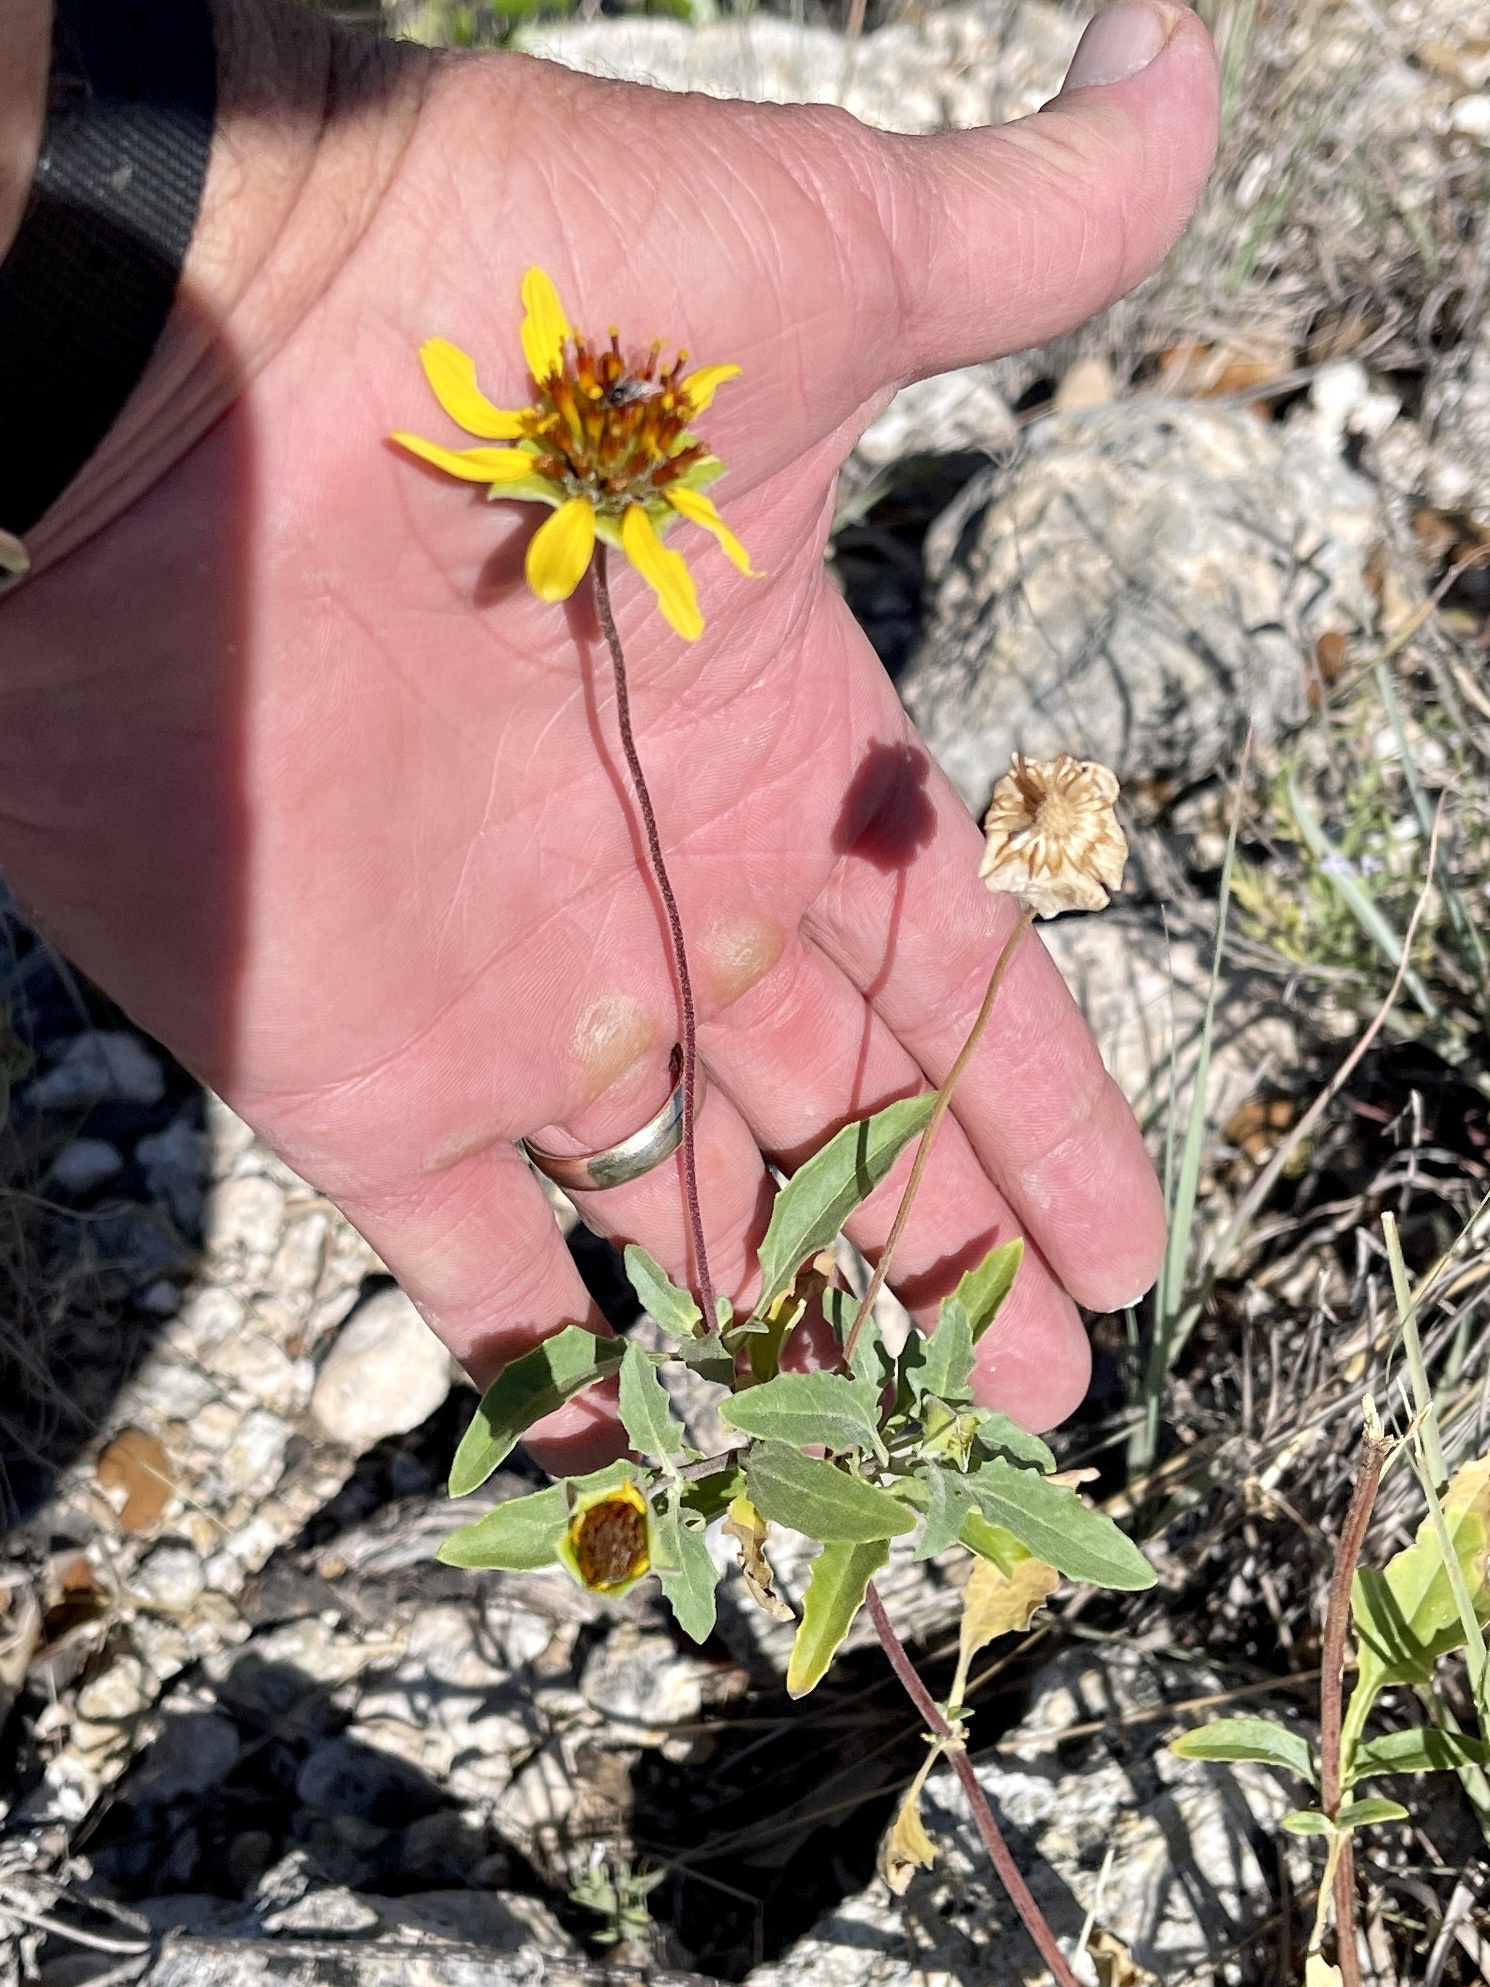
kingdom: Plantae
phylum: Tracheophyta
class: Magnoliopsida
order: Asterales
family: Asteraceae
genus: Tetragonotheca
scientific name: Tetragonotheca texana
